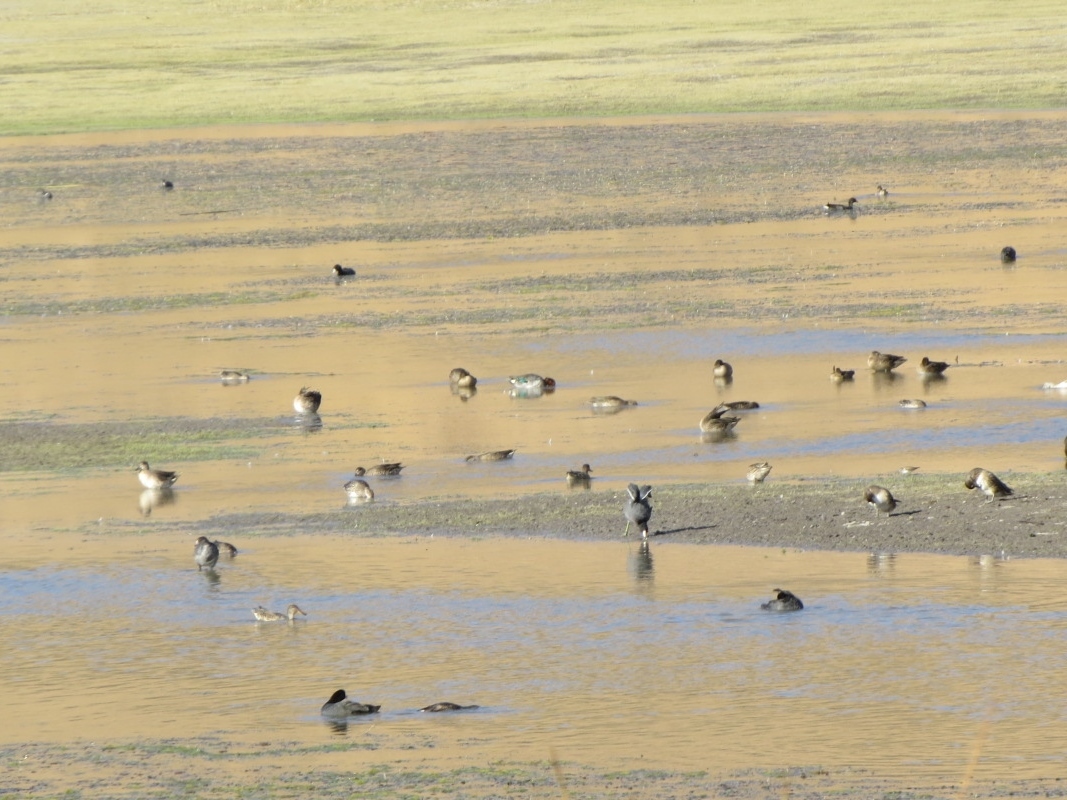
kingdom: Animalia
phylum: Chordata
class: Aves
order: Gruiformes
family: Rallidae
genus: Fulica
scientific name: Fulica americana
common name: American coot
